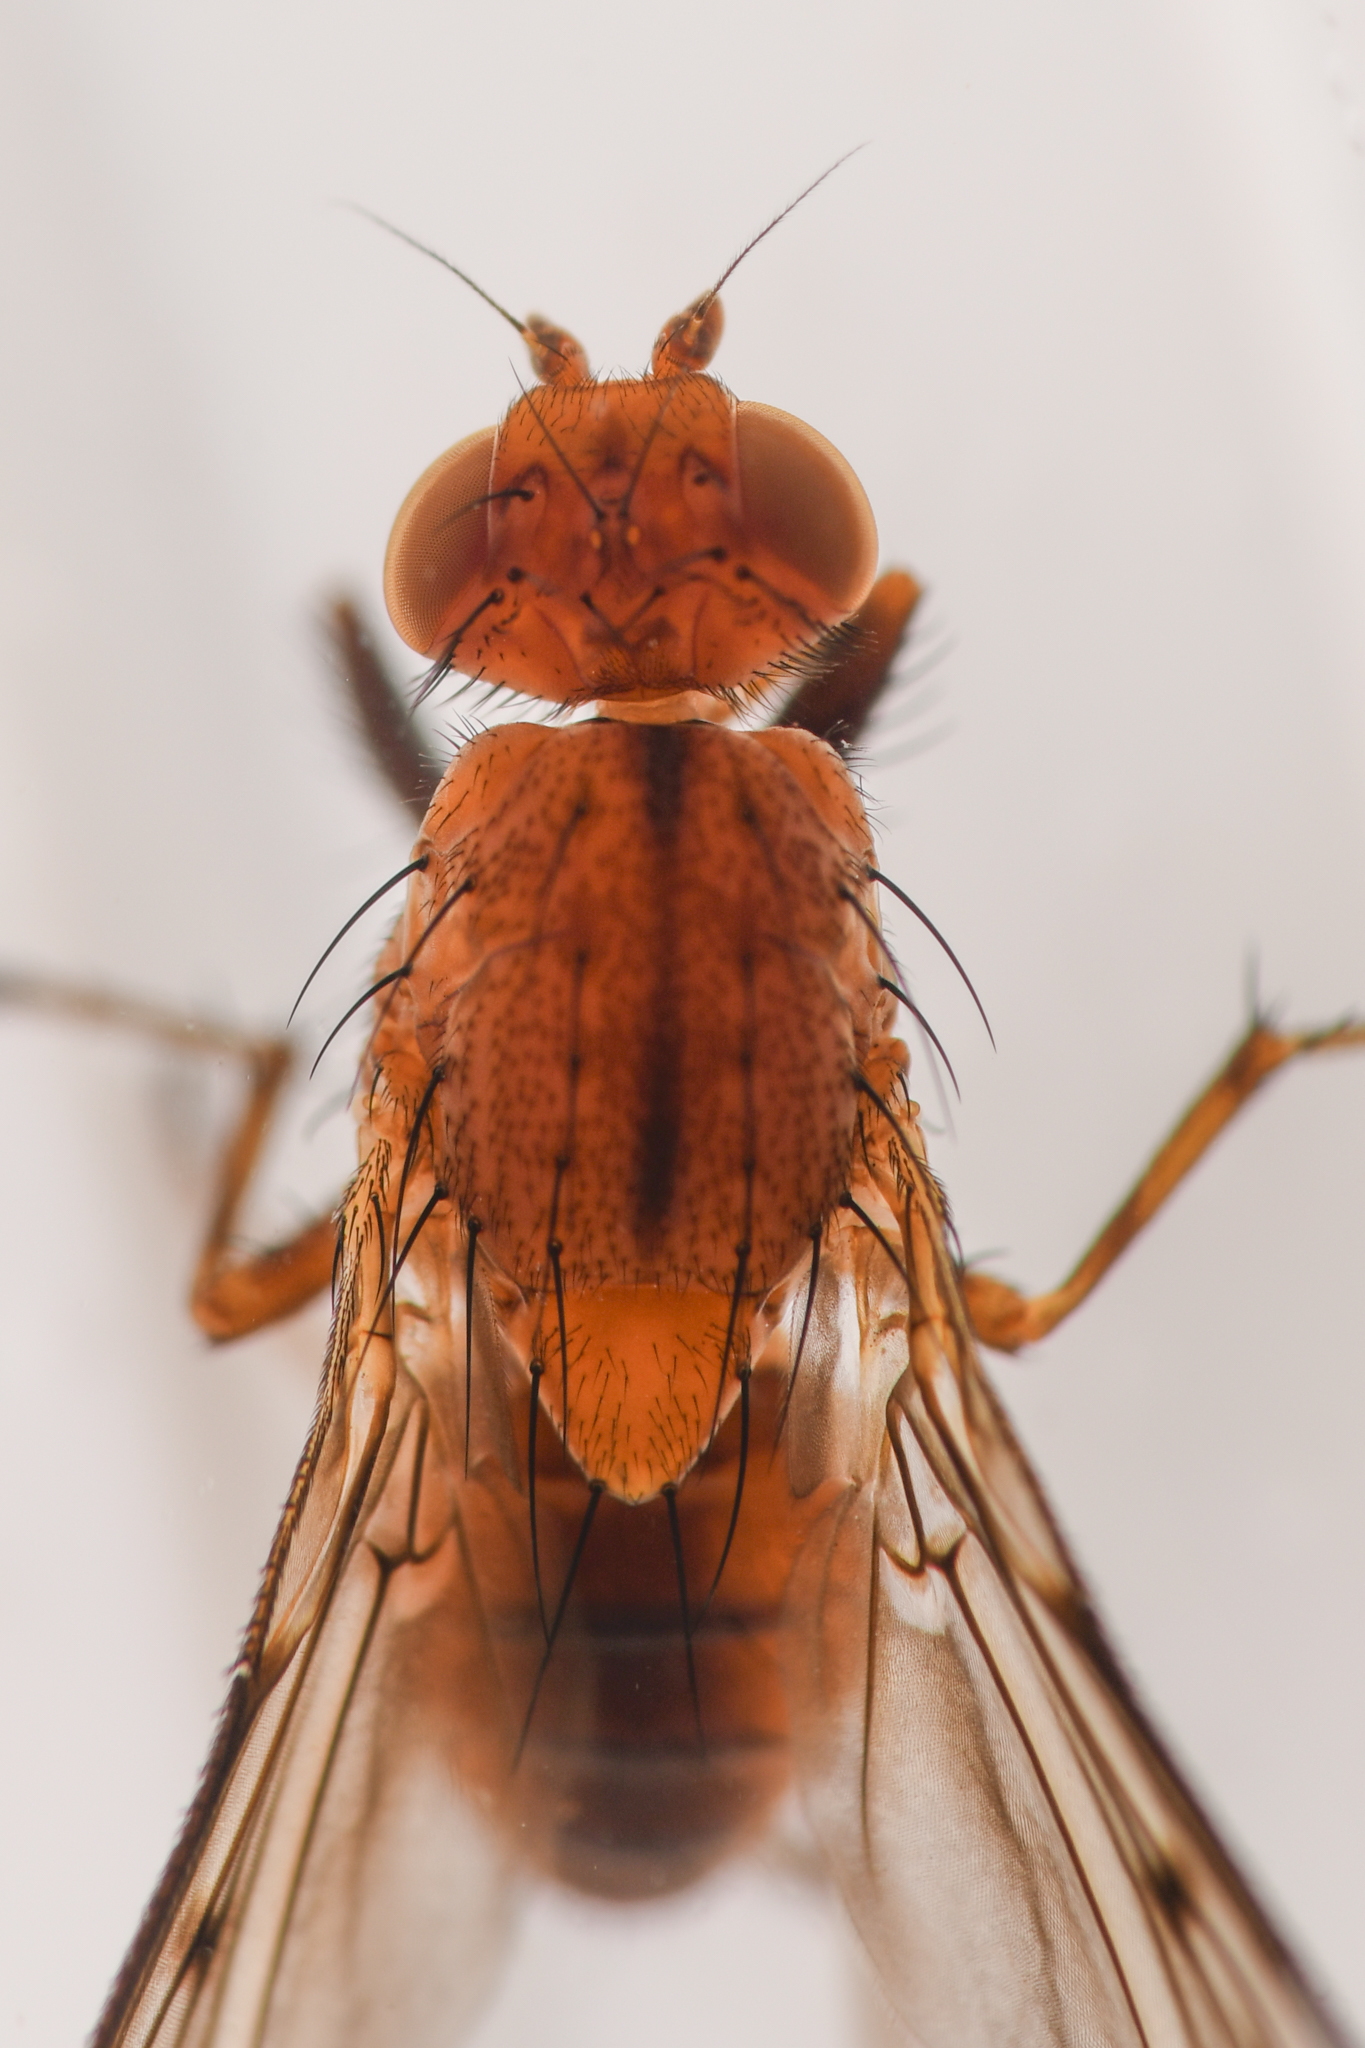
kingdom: Animalia
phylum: Arthropoda
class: Insecta
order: Diptera
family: Heleomyzidae
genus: Suillia
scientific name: Suillia barberi
